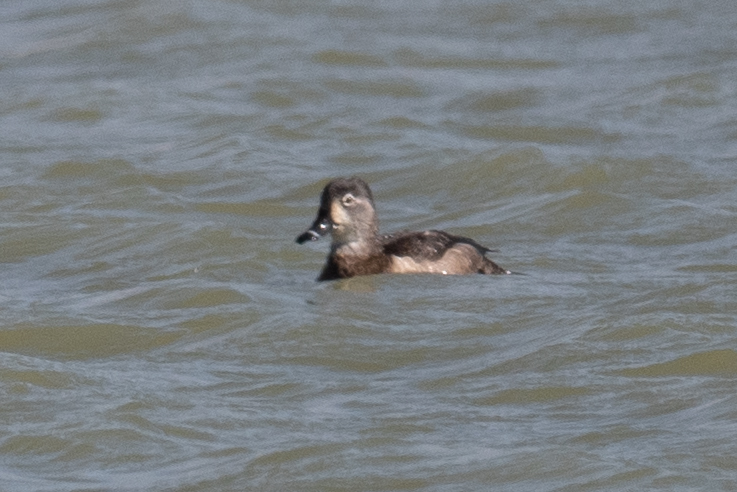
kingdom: Animalia
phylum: Chordata
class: Aves
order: Anseriformes
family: Anatidae
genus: Aythya
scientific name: Aythya collaris
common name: Ring-necked duck
